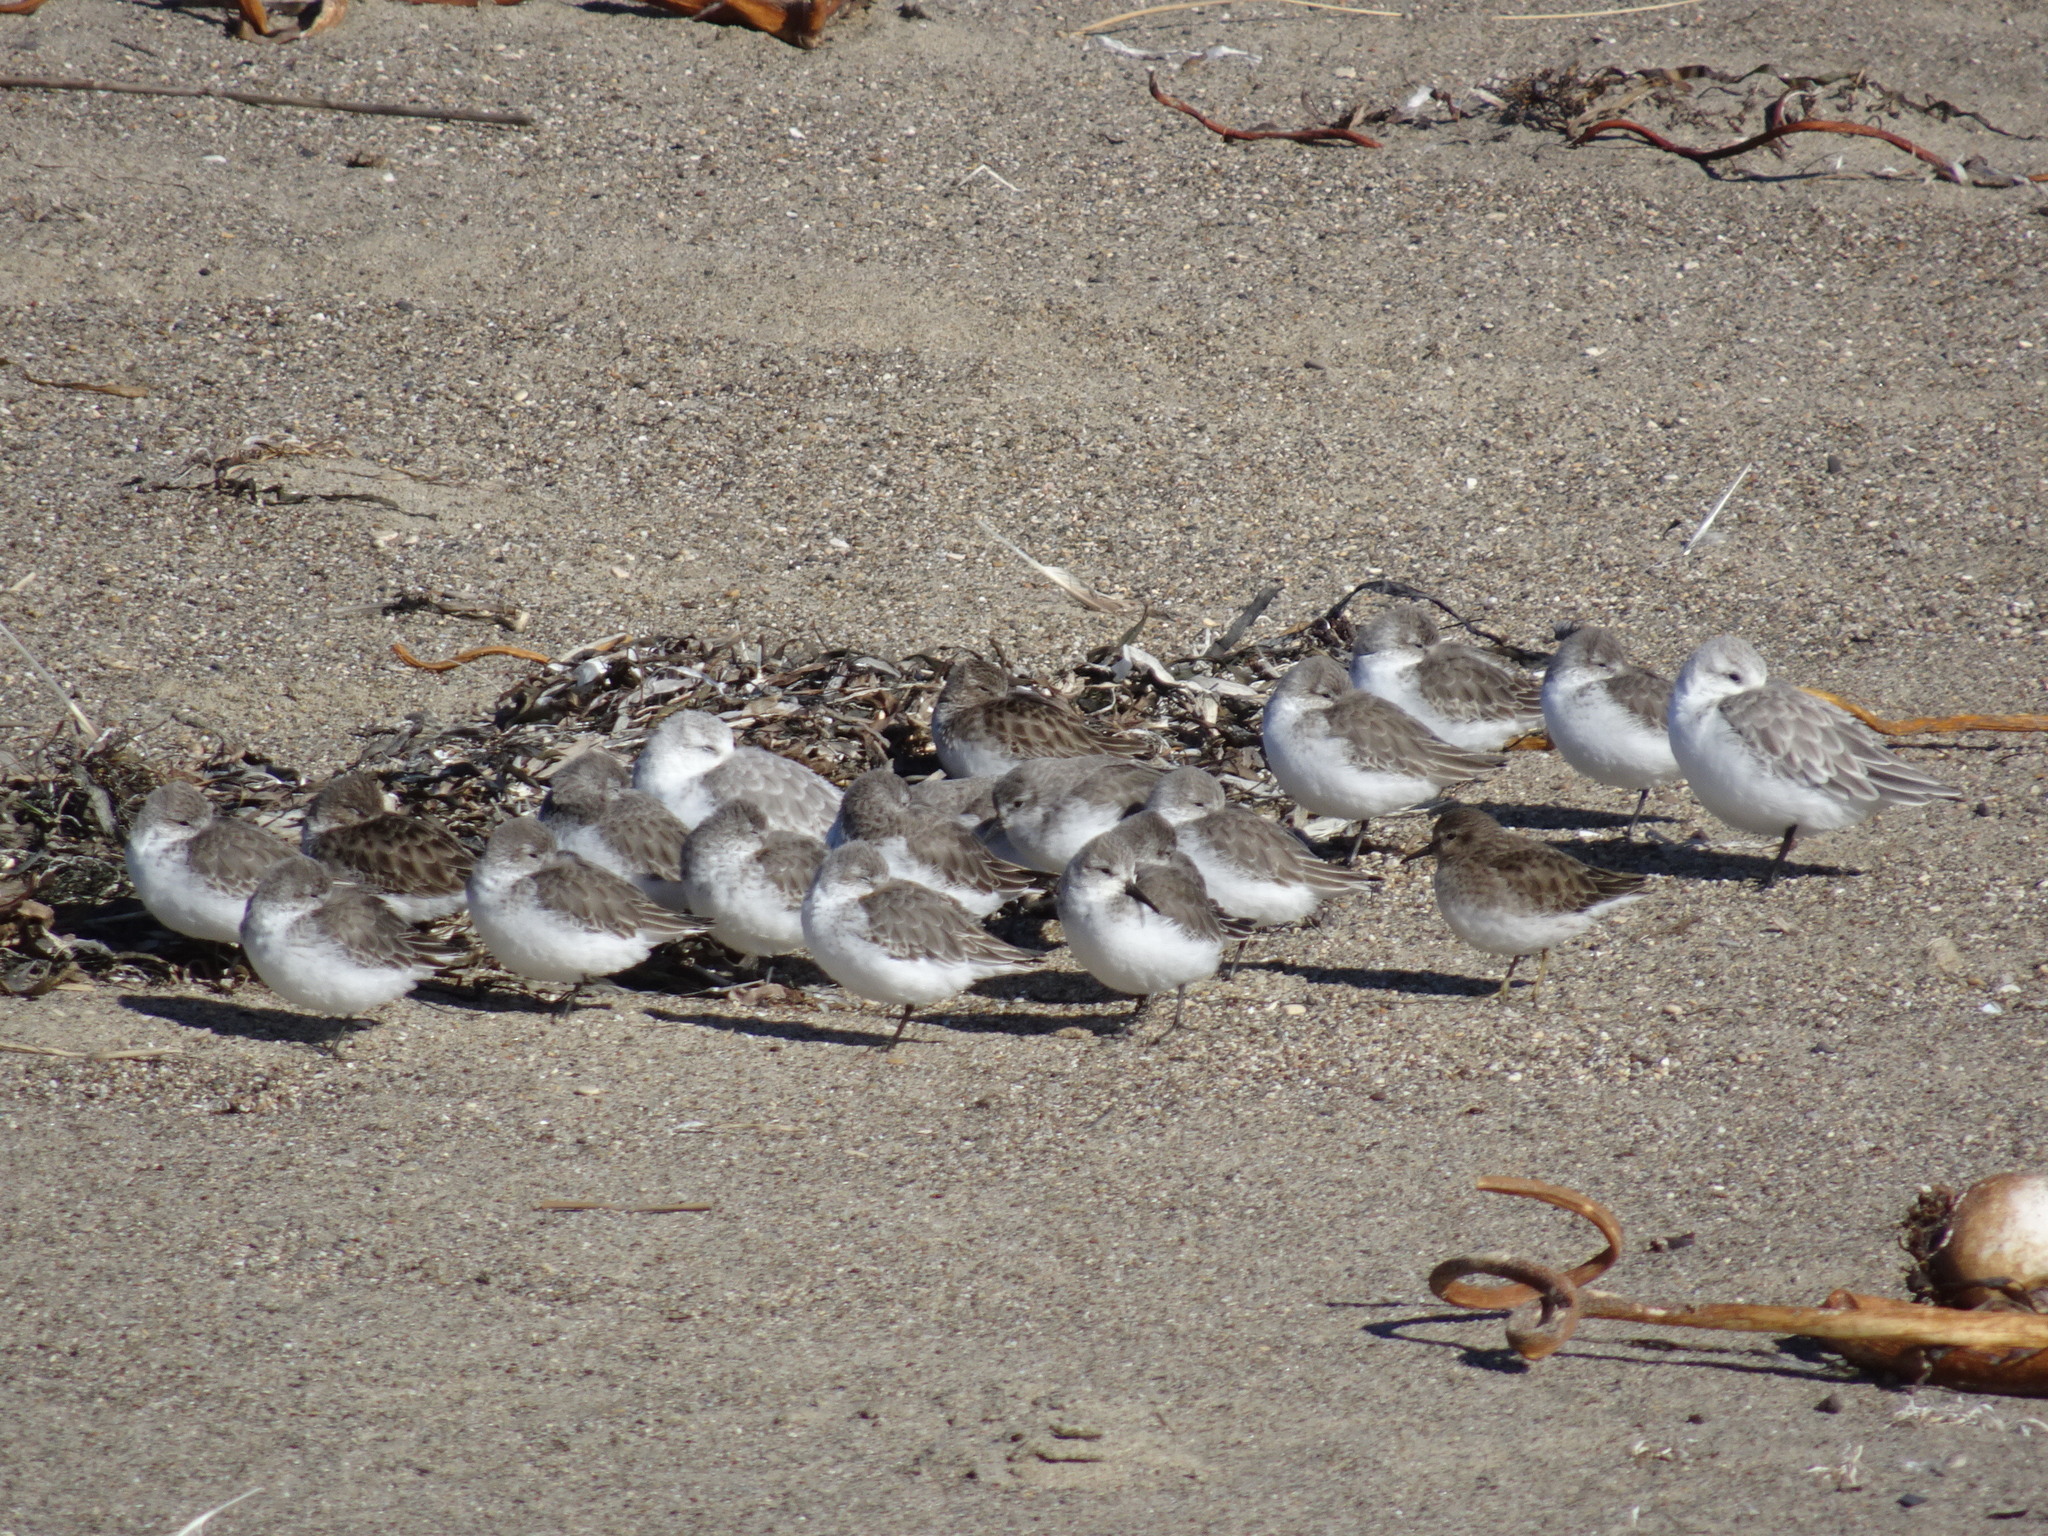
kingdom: Animalia
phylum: Chordata
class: Aves
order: Charadriiformes
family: Scolopacidae
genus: Calidris
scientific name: Calidris mauri
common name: Western sandpiper
